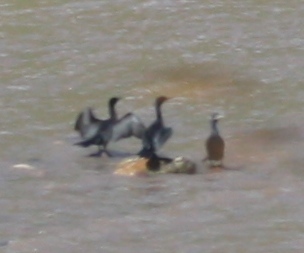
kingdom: Animalia
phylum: Chordata
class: Aves
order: Suliformes
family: Phalacrocoracidae
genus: Phalacrocorax
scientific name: Phalacrocorax brasilianus
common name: Neotropic cormorant
